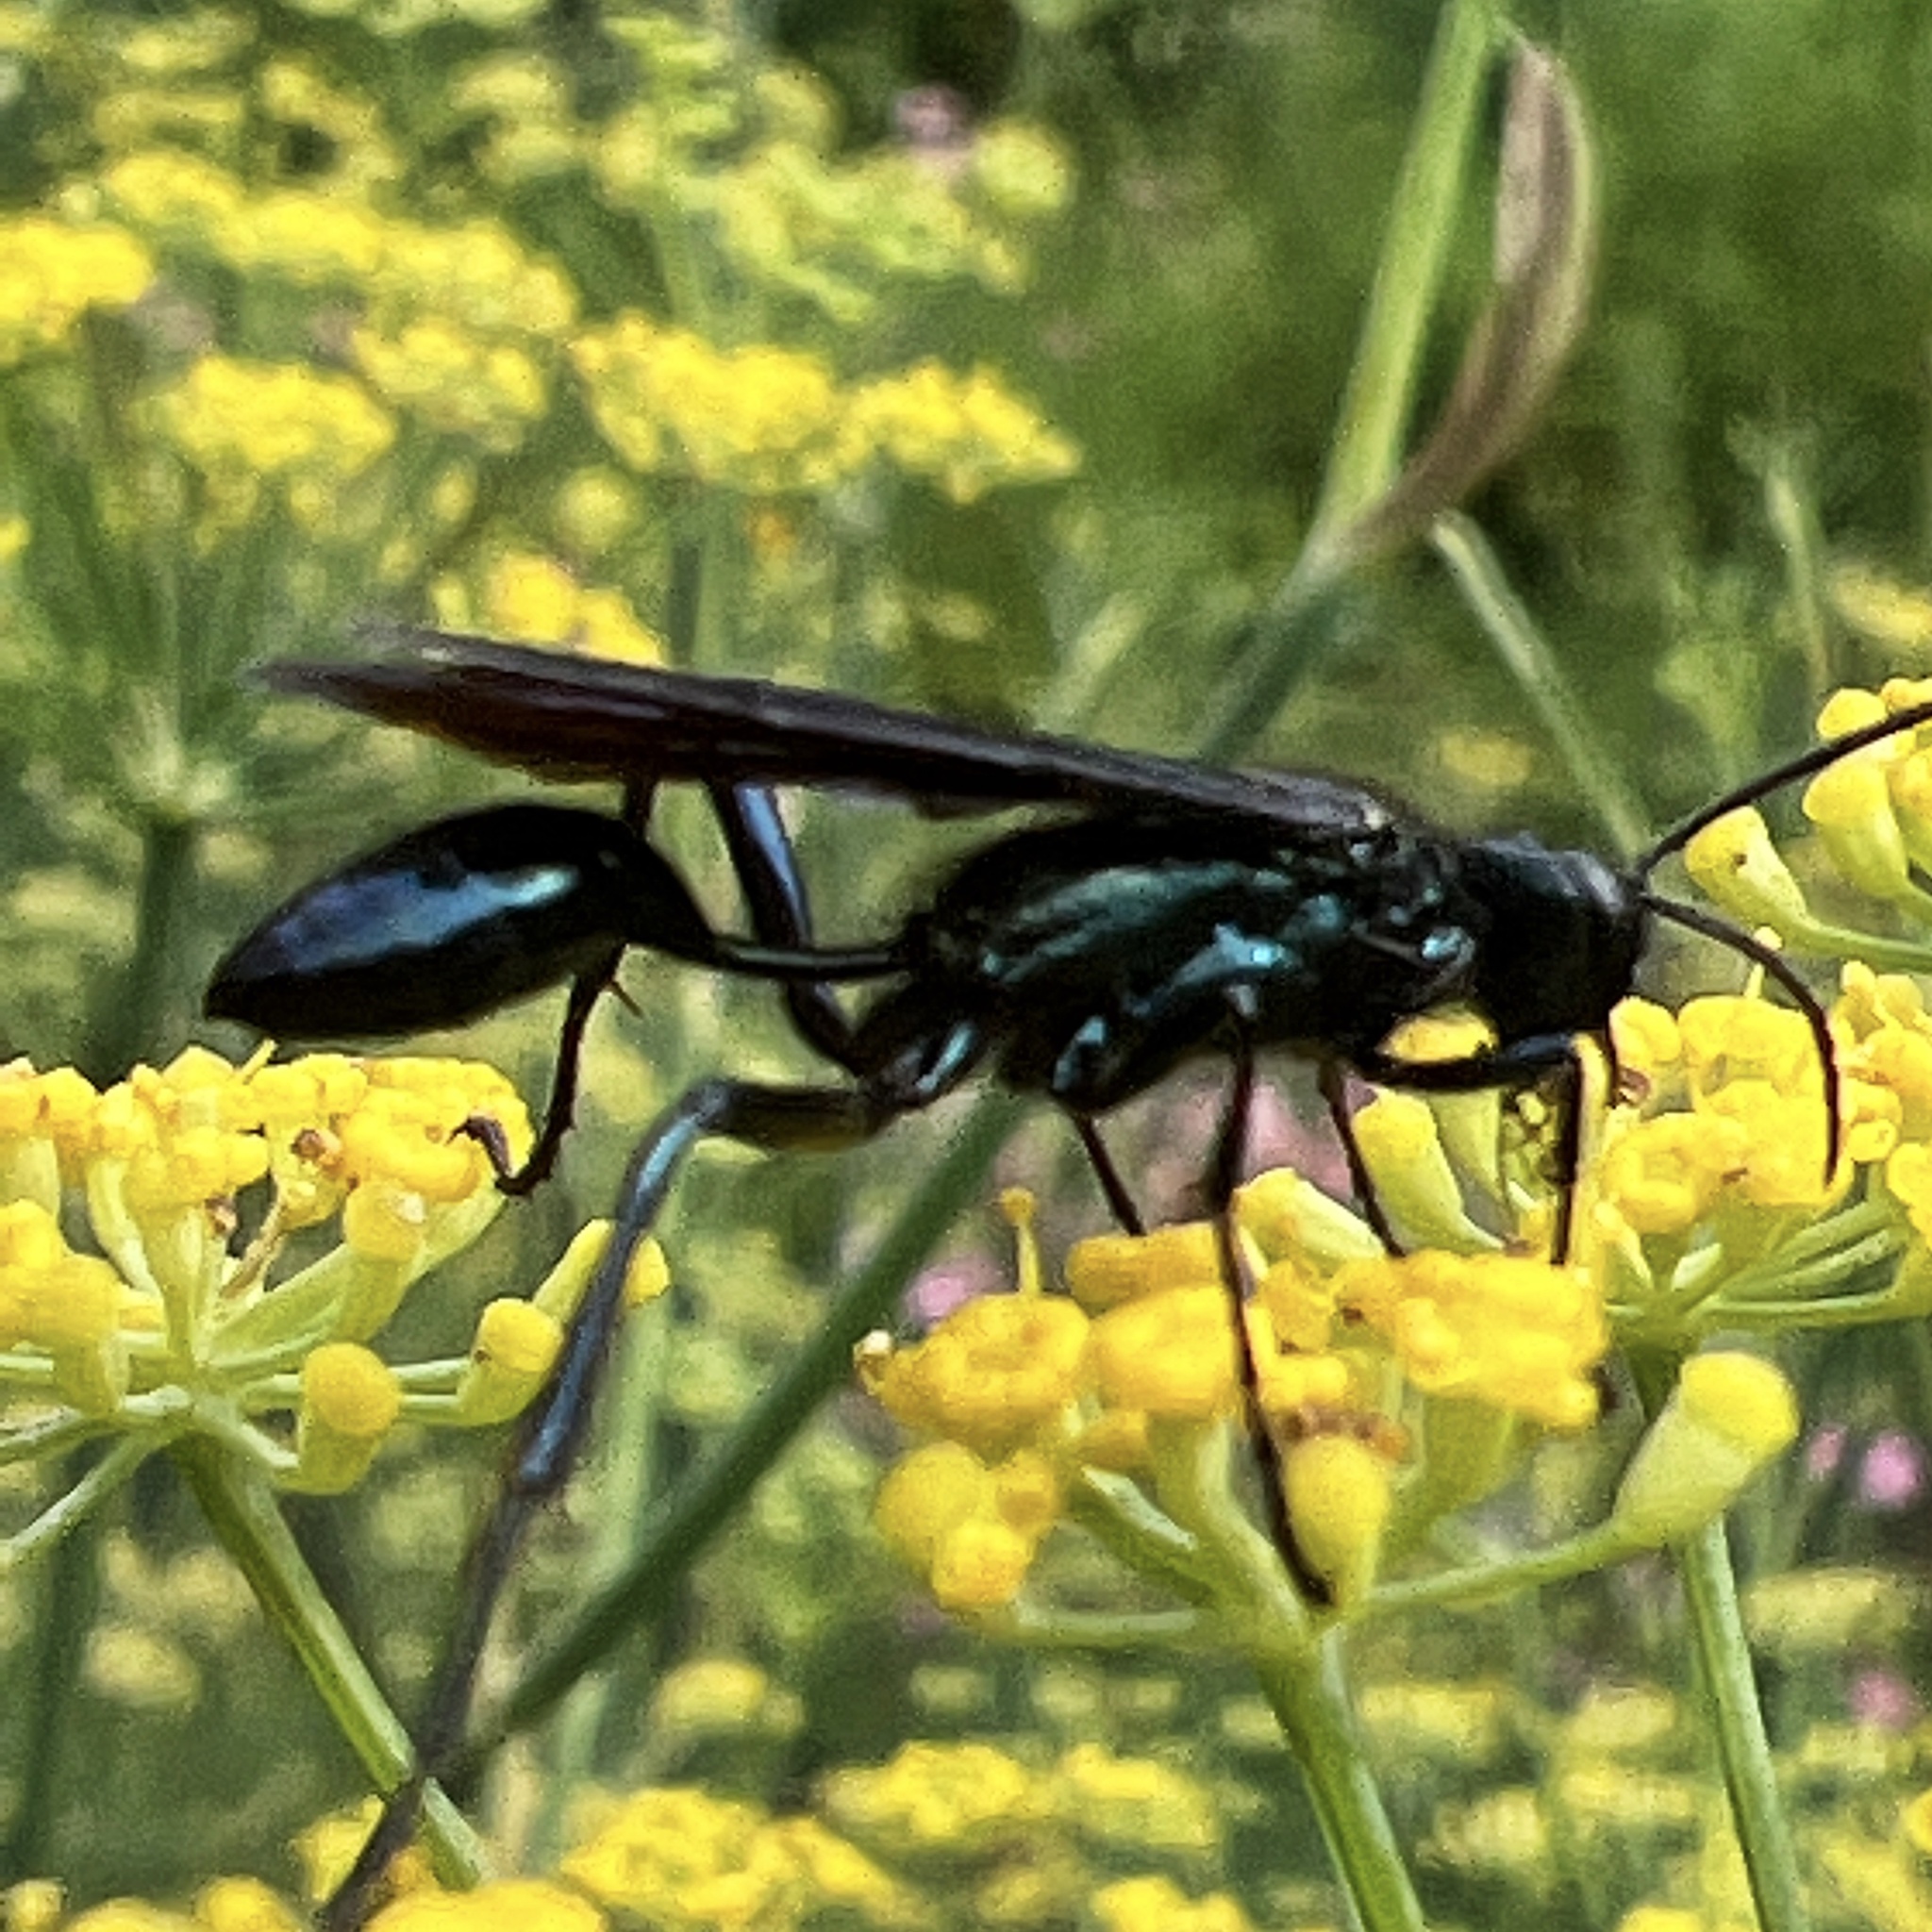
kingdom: Animalia
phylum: Arthropoda
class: Insecta
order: Hymenoptera
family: Sphecidae
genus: Chalybion
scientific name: Chalybion californicum
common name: Mud dauber
